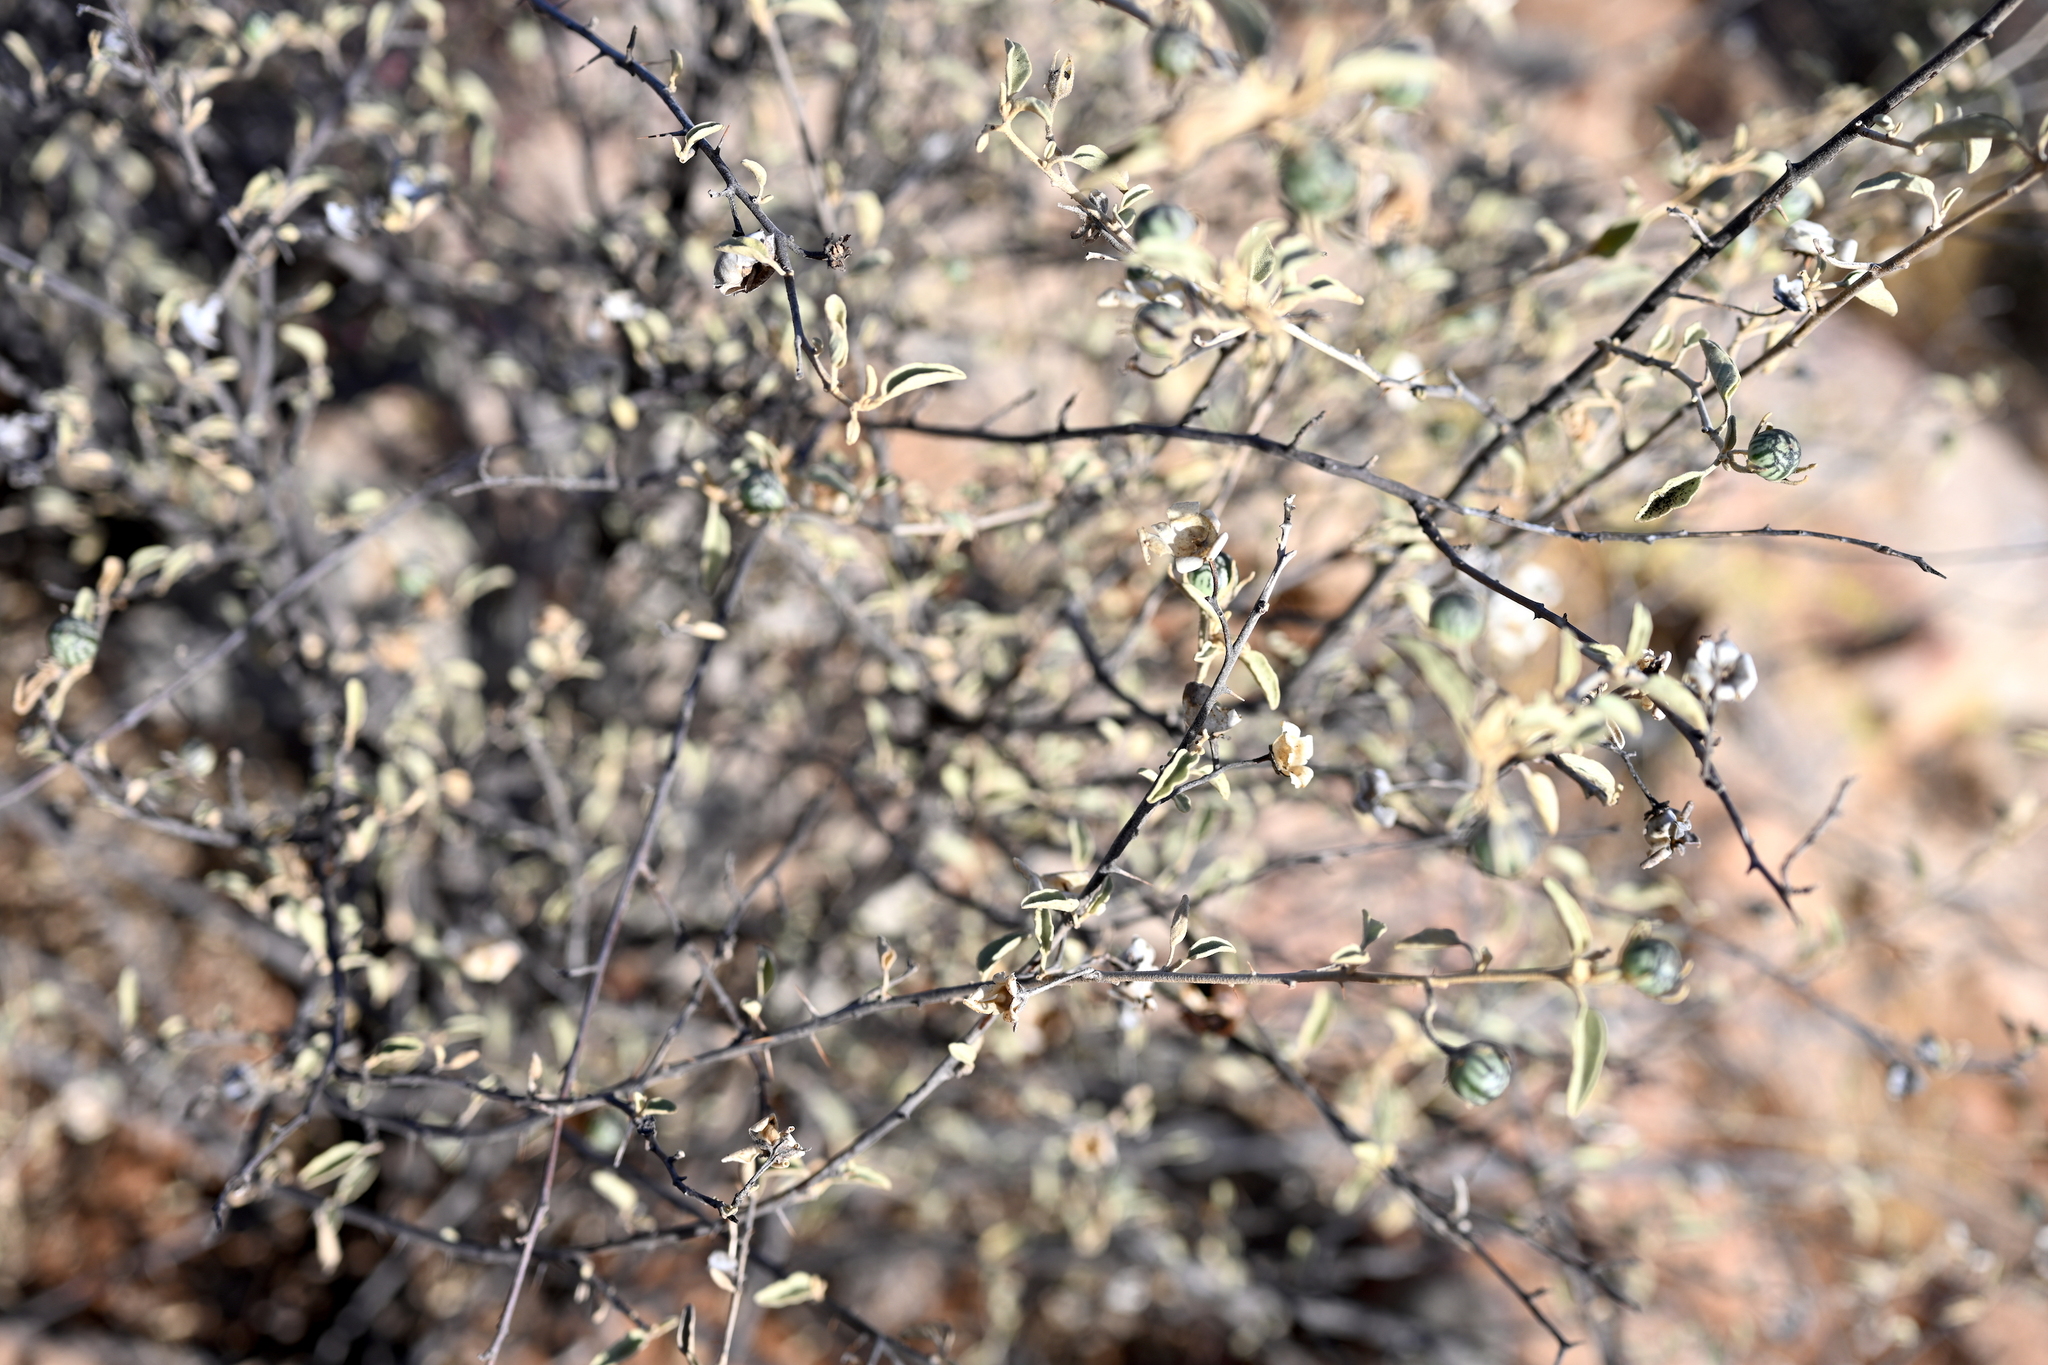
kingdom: Plantae
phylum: Tracheophyta
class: Magnoliopsida
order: Solanales
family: Solanaceae
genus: Solanum
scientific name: Solanum hindsianum
